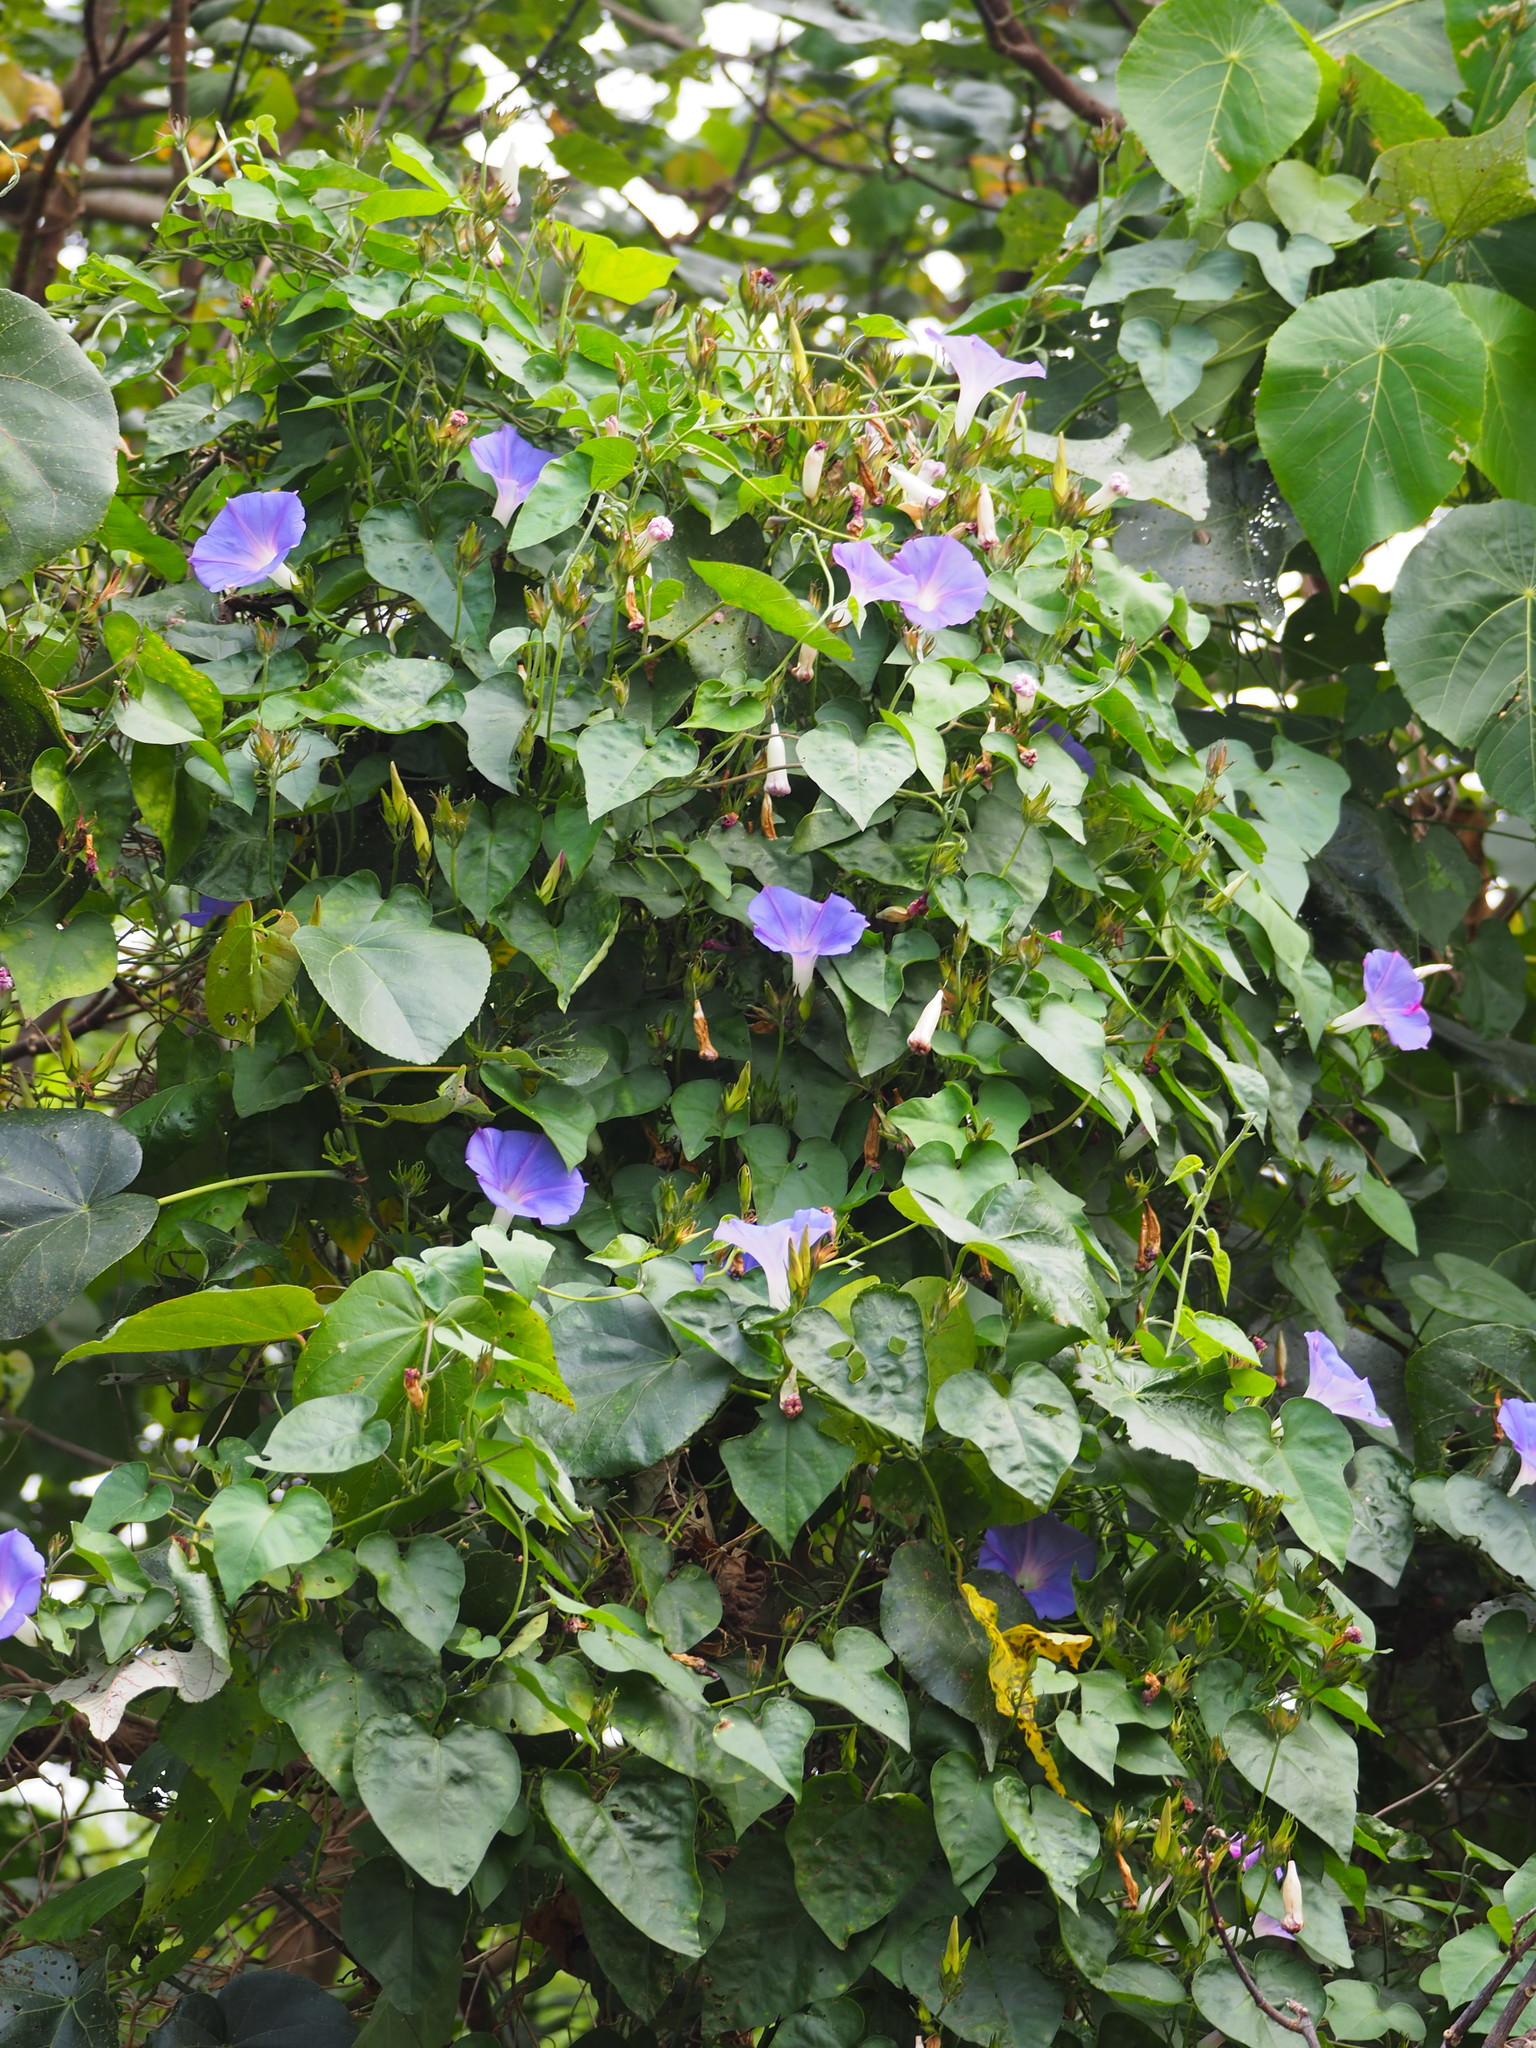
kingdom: Plantae
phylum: Tracheophyta
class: Magnoliopsida
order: Solanales
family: Convolvulaceae
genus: Ipomoea
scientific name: Ipomoea indica
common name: Blue dawnflower
